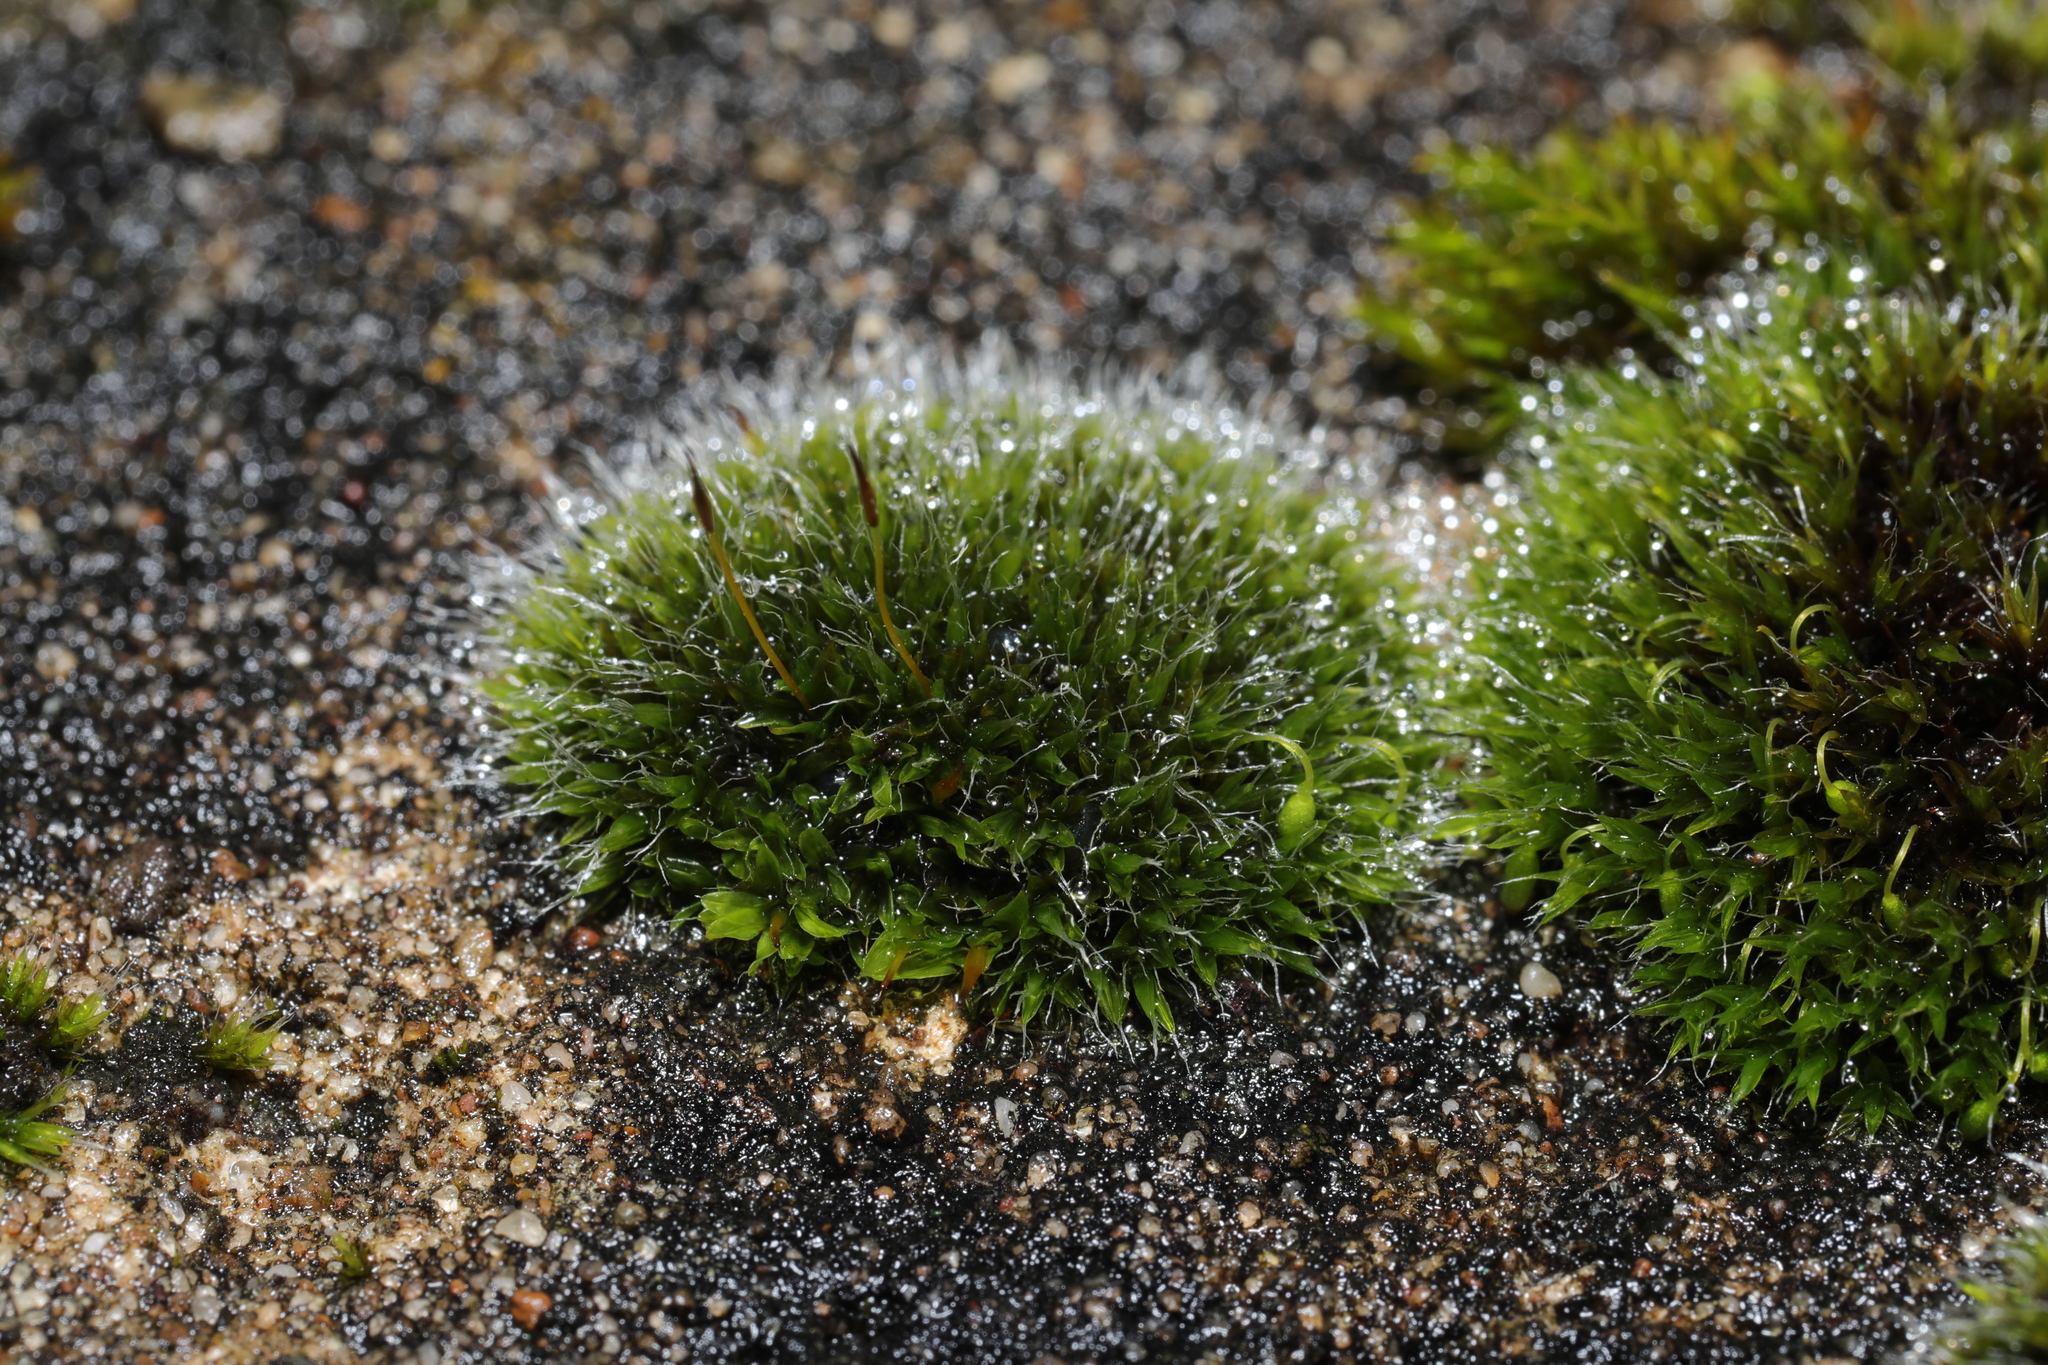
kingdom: Plantae
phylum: Bryophyta
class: Bryopsida
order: Grimmiales
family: Grimmiaceae
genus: Grimmia
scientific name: Grimmia pulvinata
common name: Grey-cushioned grimmia
